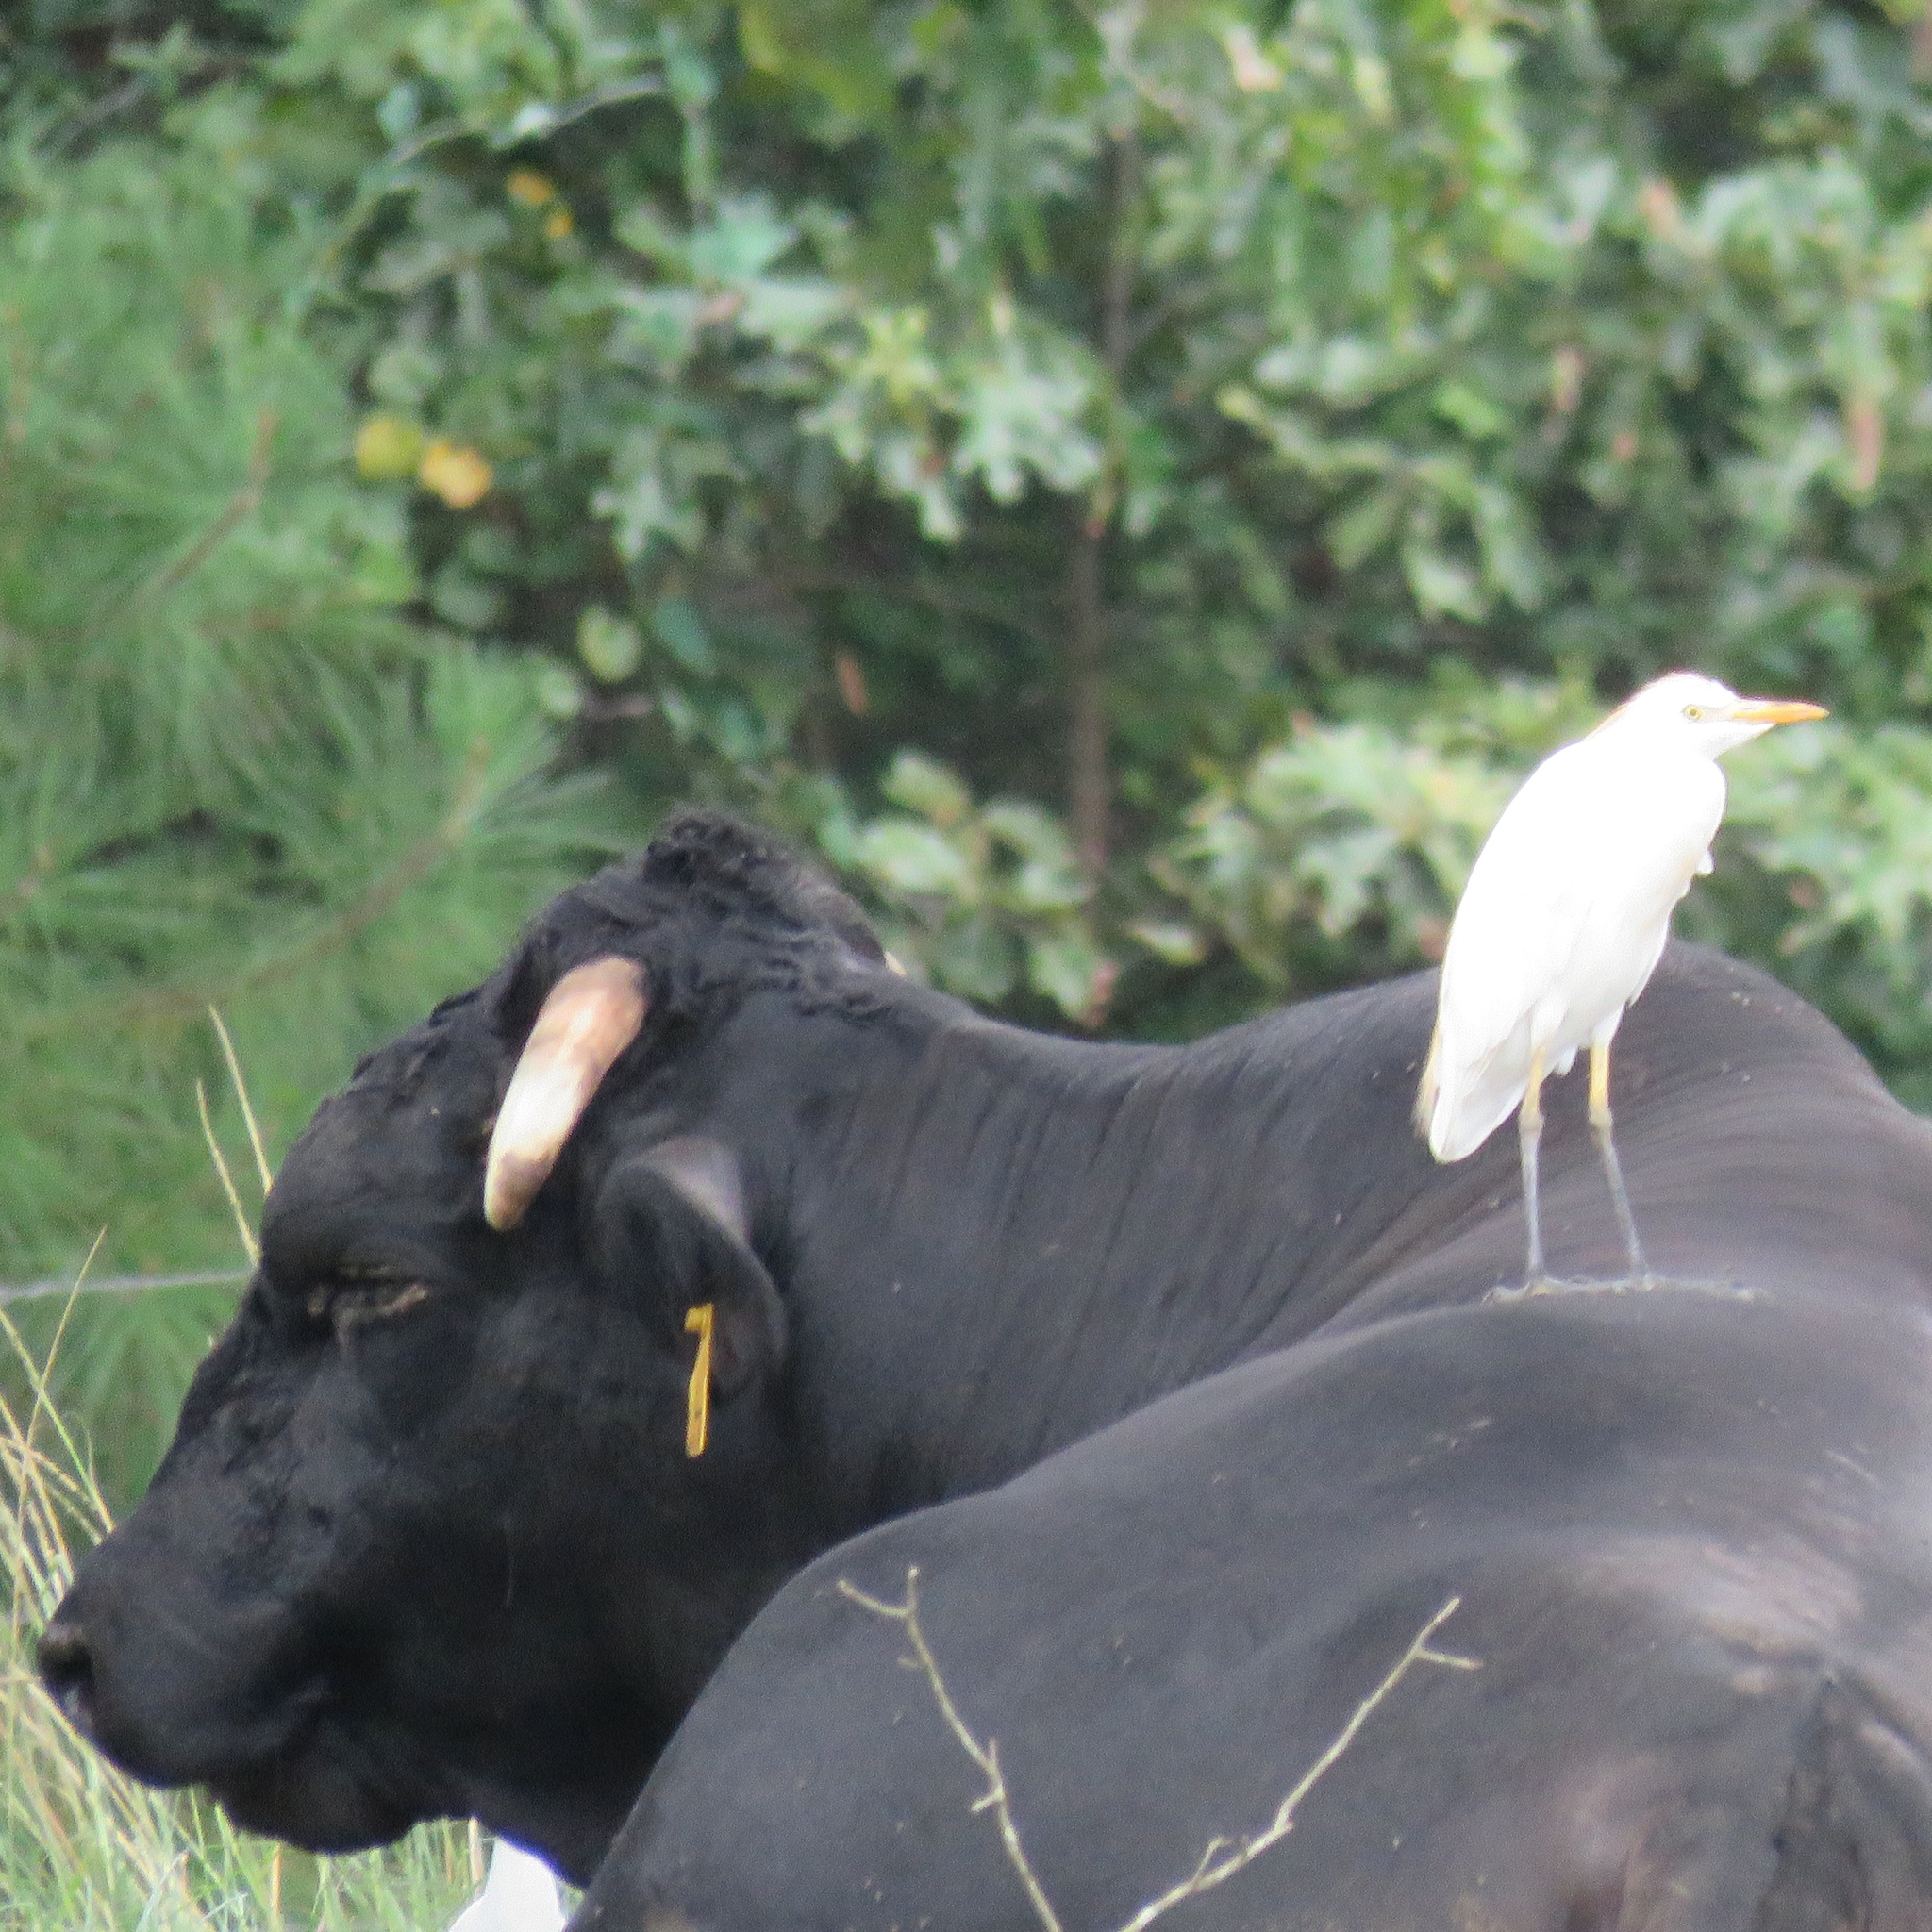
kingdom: Animalia
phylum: Chordata
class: Aves
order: Pelecaniformes
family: Ardeidae
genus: Bubulcus
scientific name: Bubulcus ibis
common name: Cattle egret
